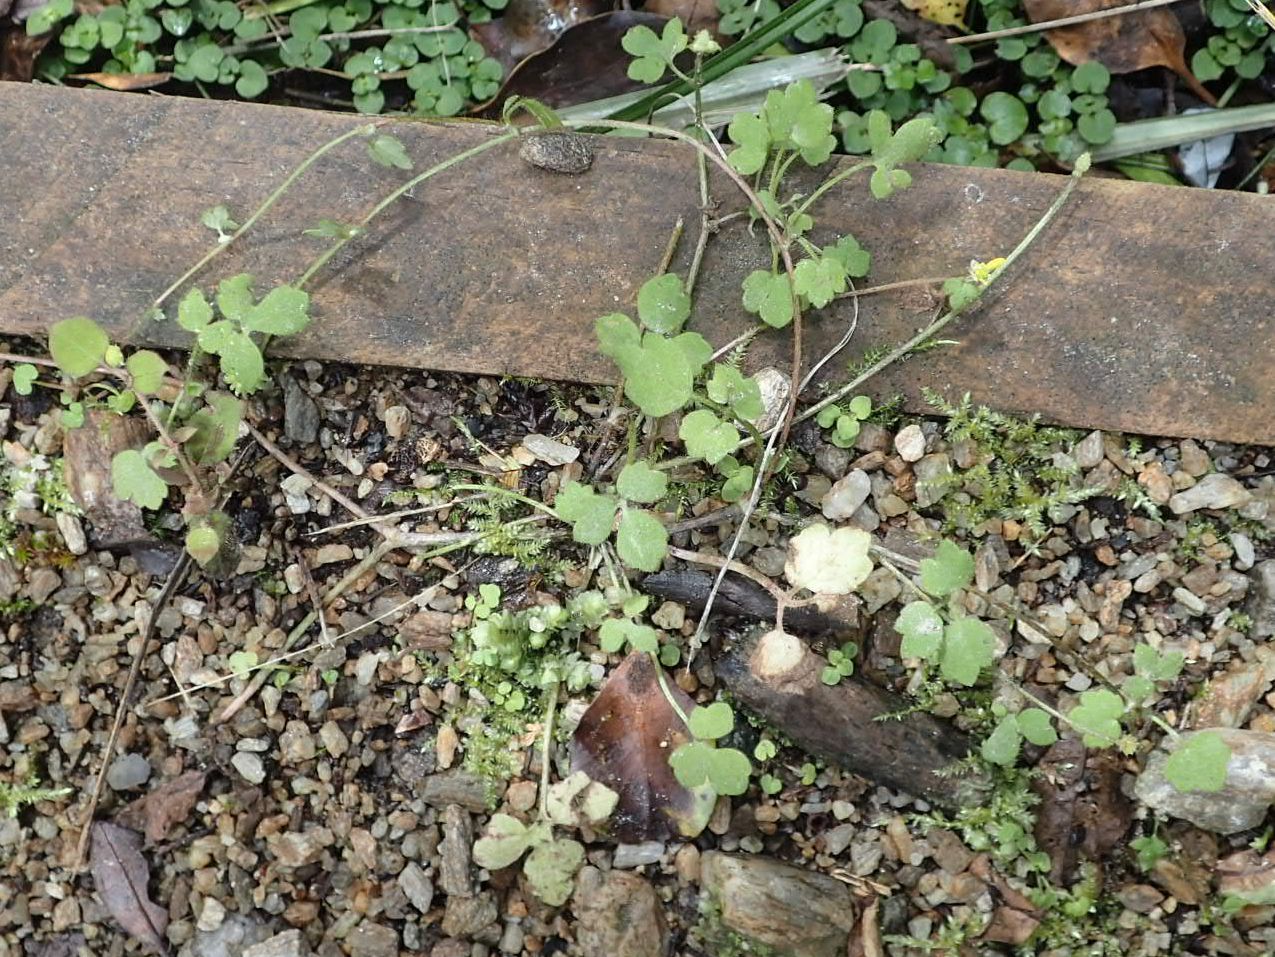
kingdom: Plantae
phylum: Tracheophyta
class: Magnoliopsida
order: Ranunculales
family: Ranunculaceae
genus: Ranunculus
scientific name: Ranunculus reflexus
